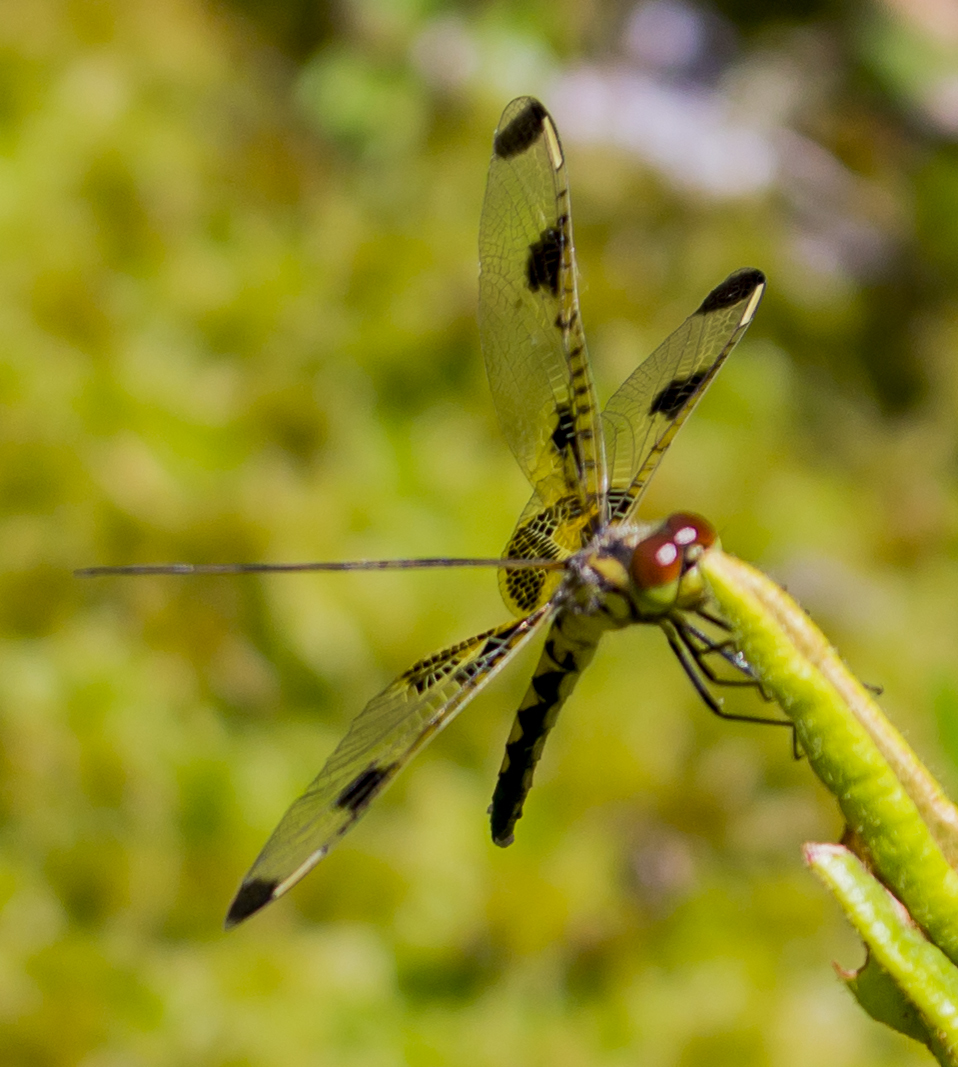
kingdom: Animalia
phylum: Arthropoda
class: Insecta
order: Odonata
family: Libellulidae
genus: Celithemis
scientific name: Celithemis elisa
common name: Calico pennant
